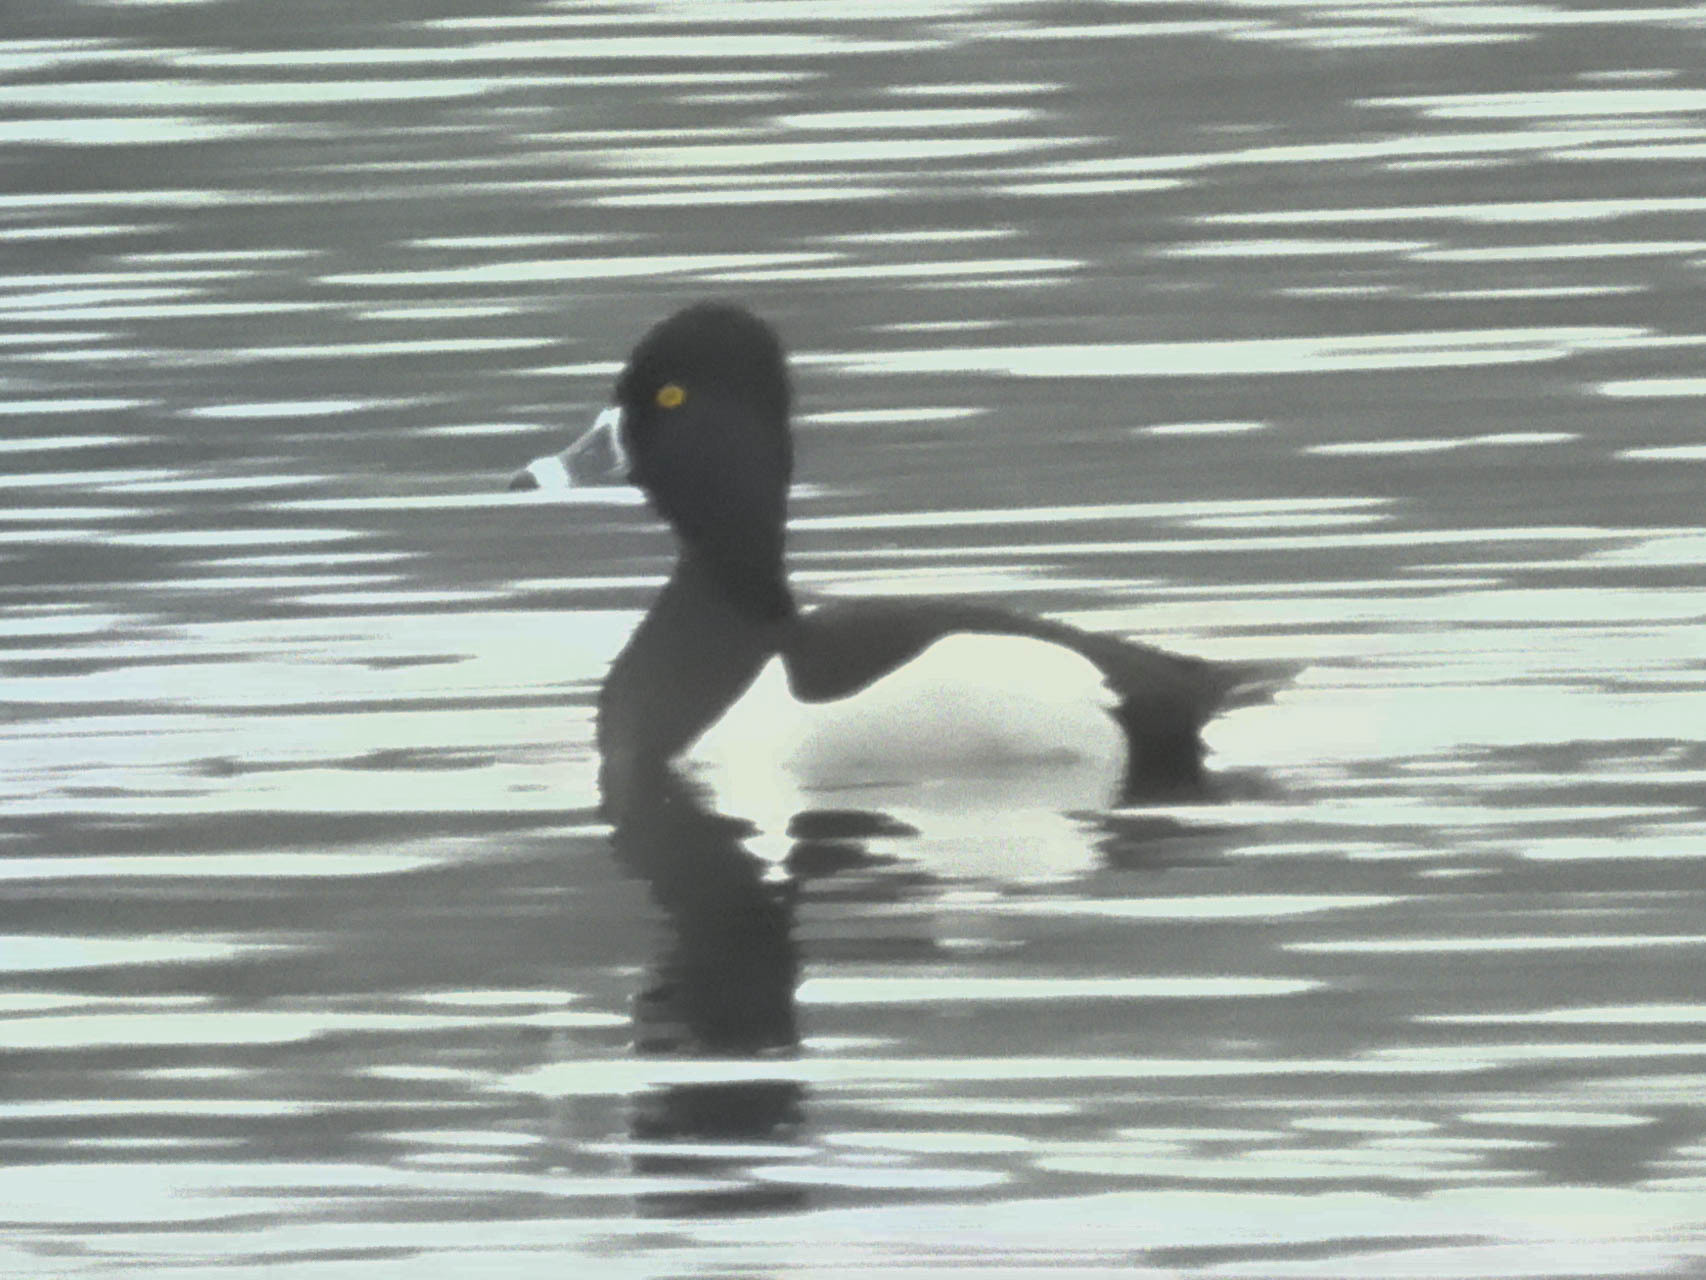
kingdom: Animalia
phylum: Chordata
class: Aves
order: Anseriformes
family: Anatidae
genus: Aythya
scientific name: Aythya collaris
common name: Ring-necked duck
